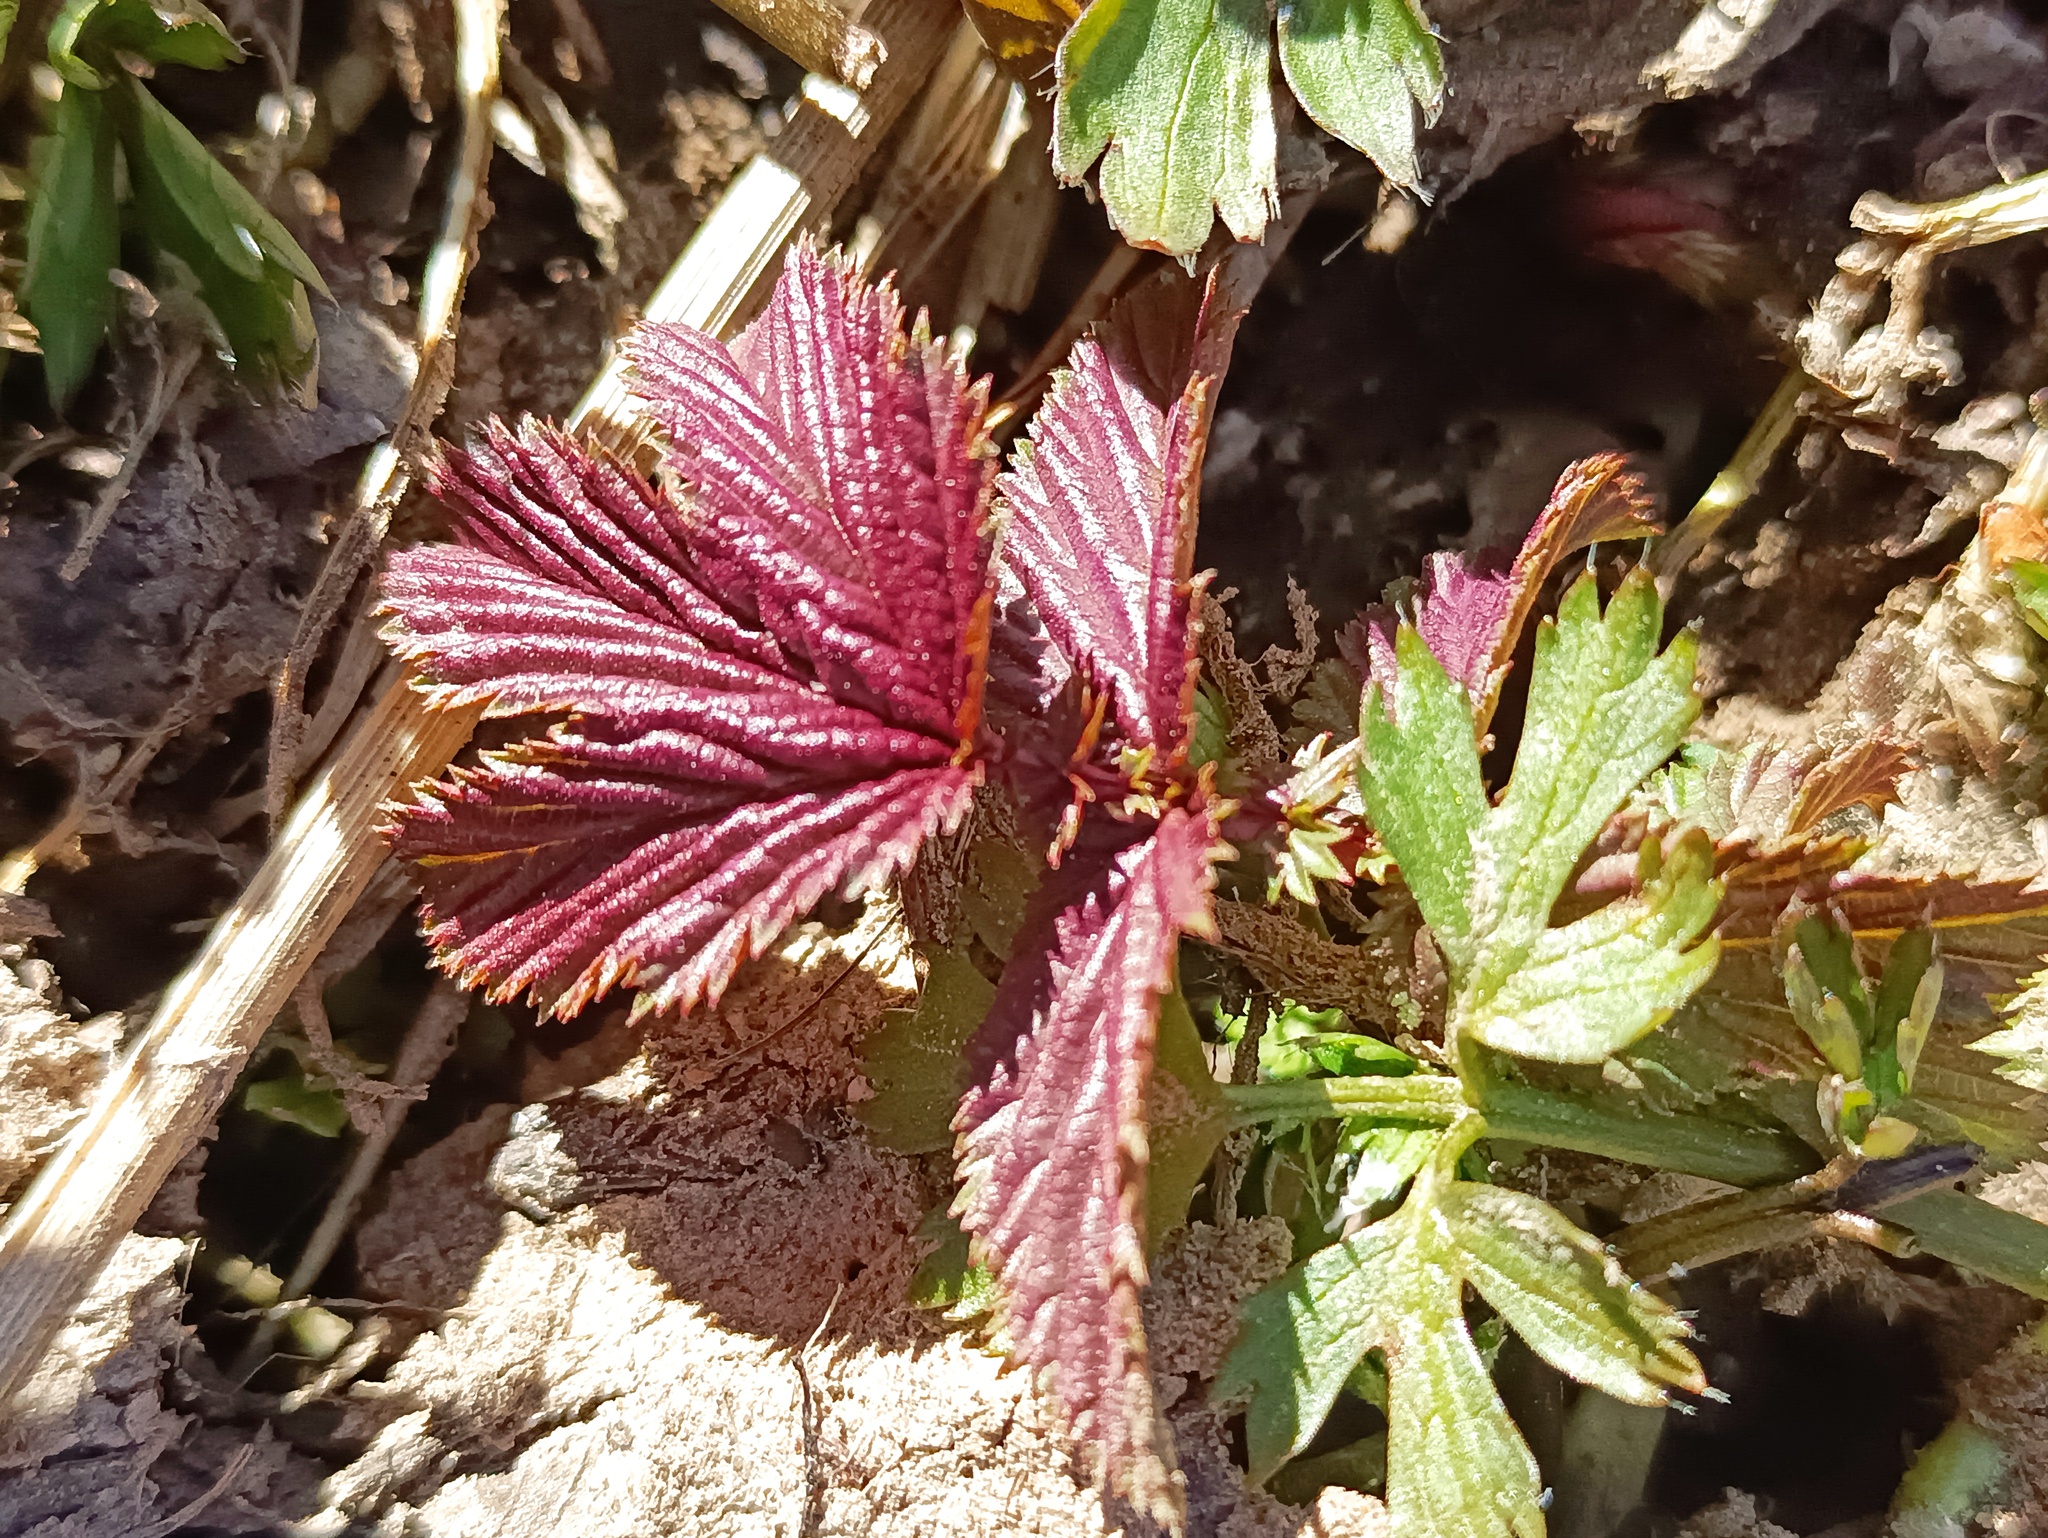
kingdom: Plantae
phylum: Tracheophyta
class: Magnoliopsida
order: Rosales
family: Rosaceae
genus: Filipendula
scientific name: Filipendula ulmaria
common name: Meadowsweet
